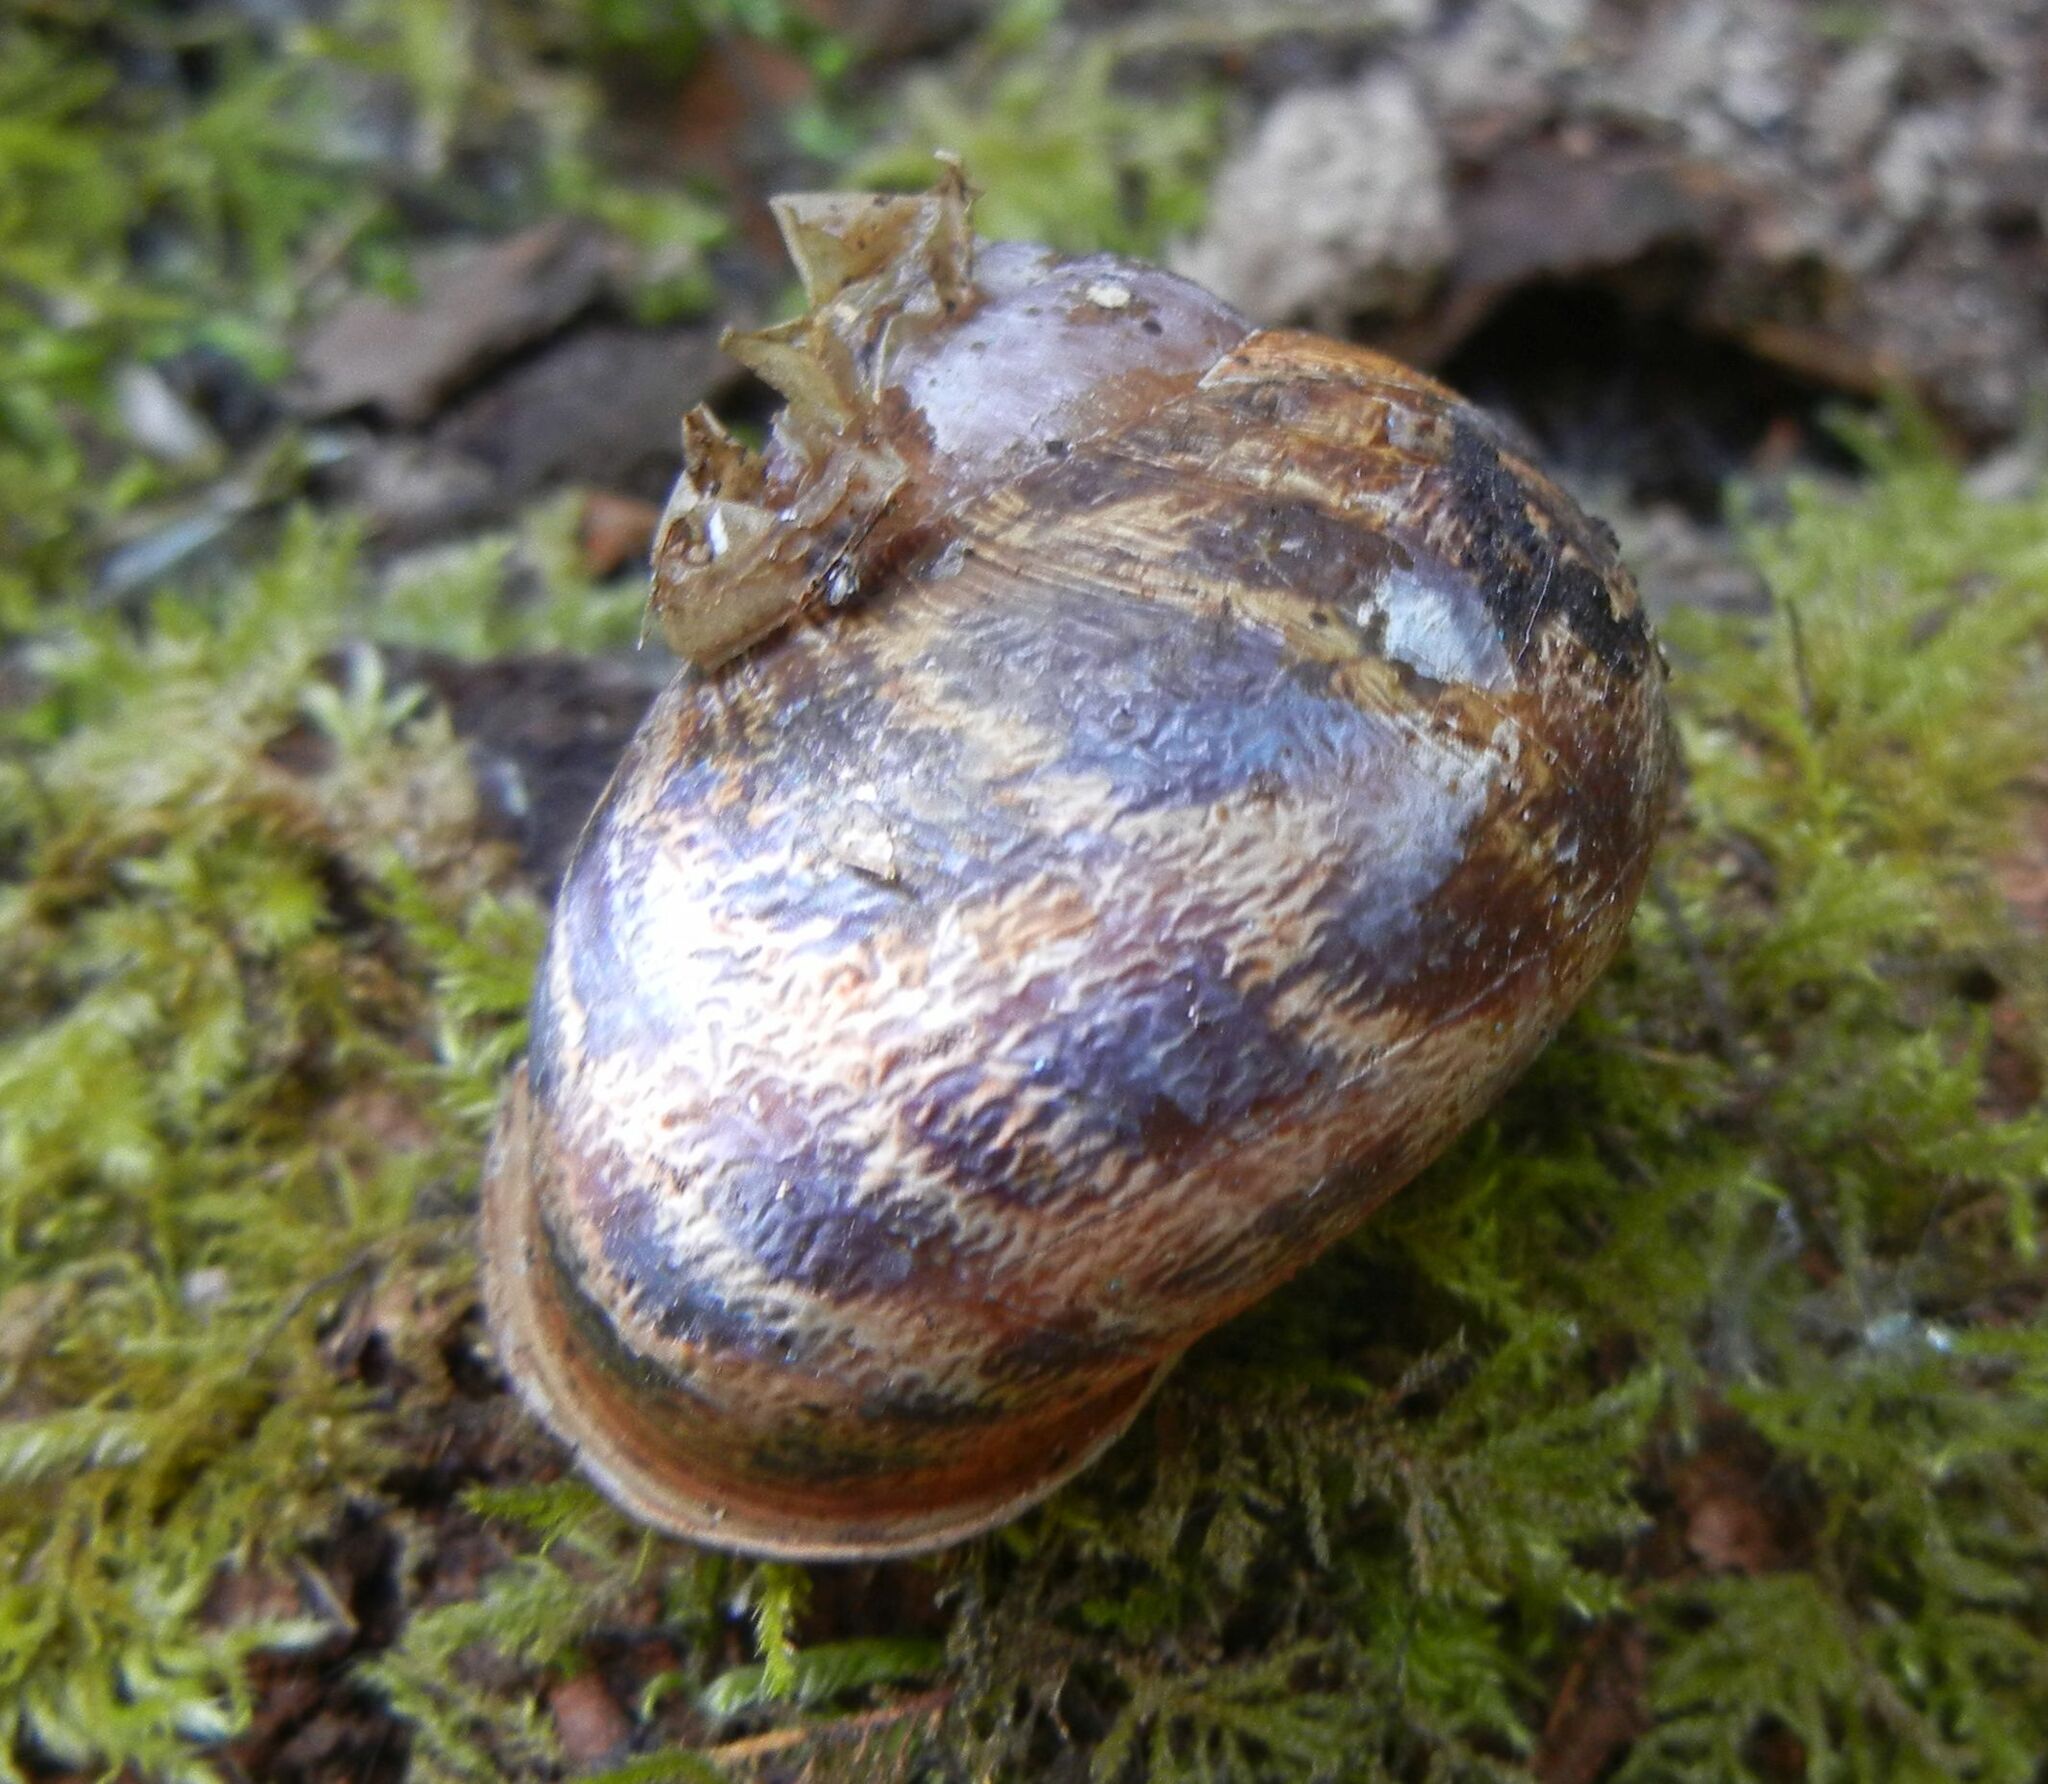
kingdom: Animalia
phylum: Mollusca
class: Gastropoda
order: Stylommatophora
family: Helicidae
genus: Cornu
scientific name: Cornu aspersum
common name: Brown garden snail
